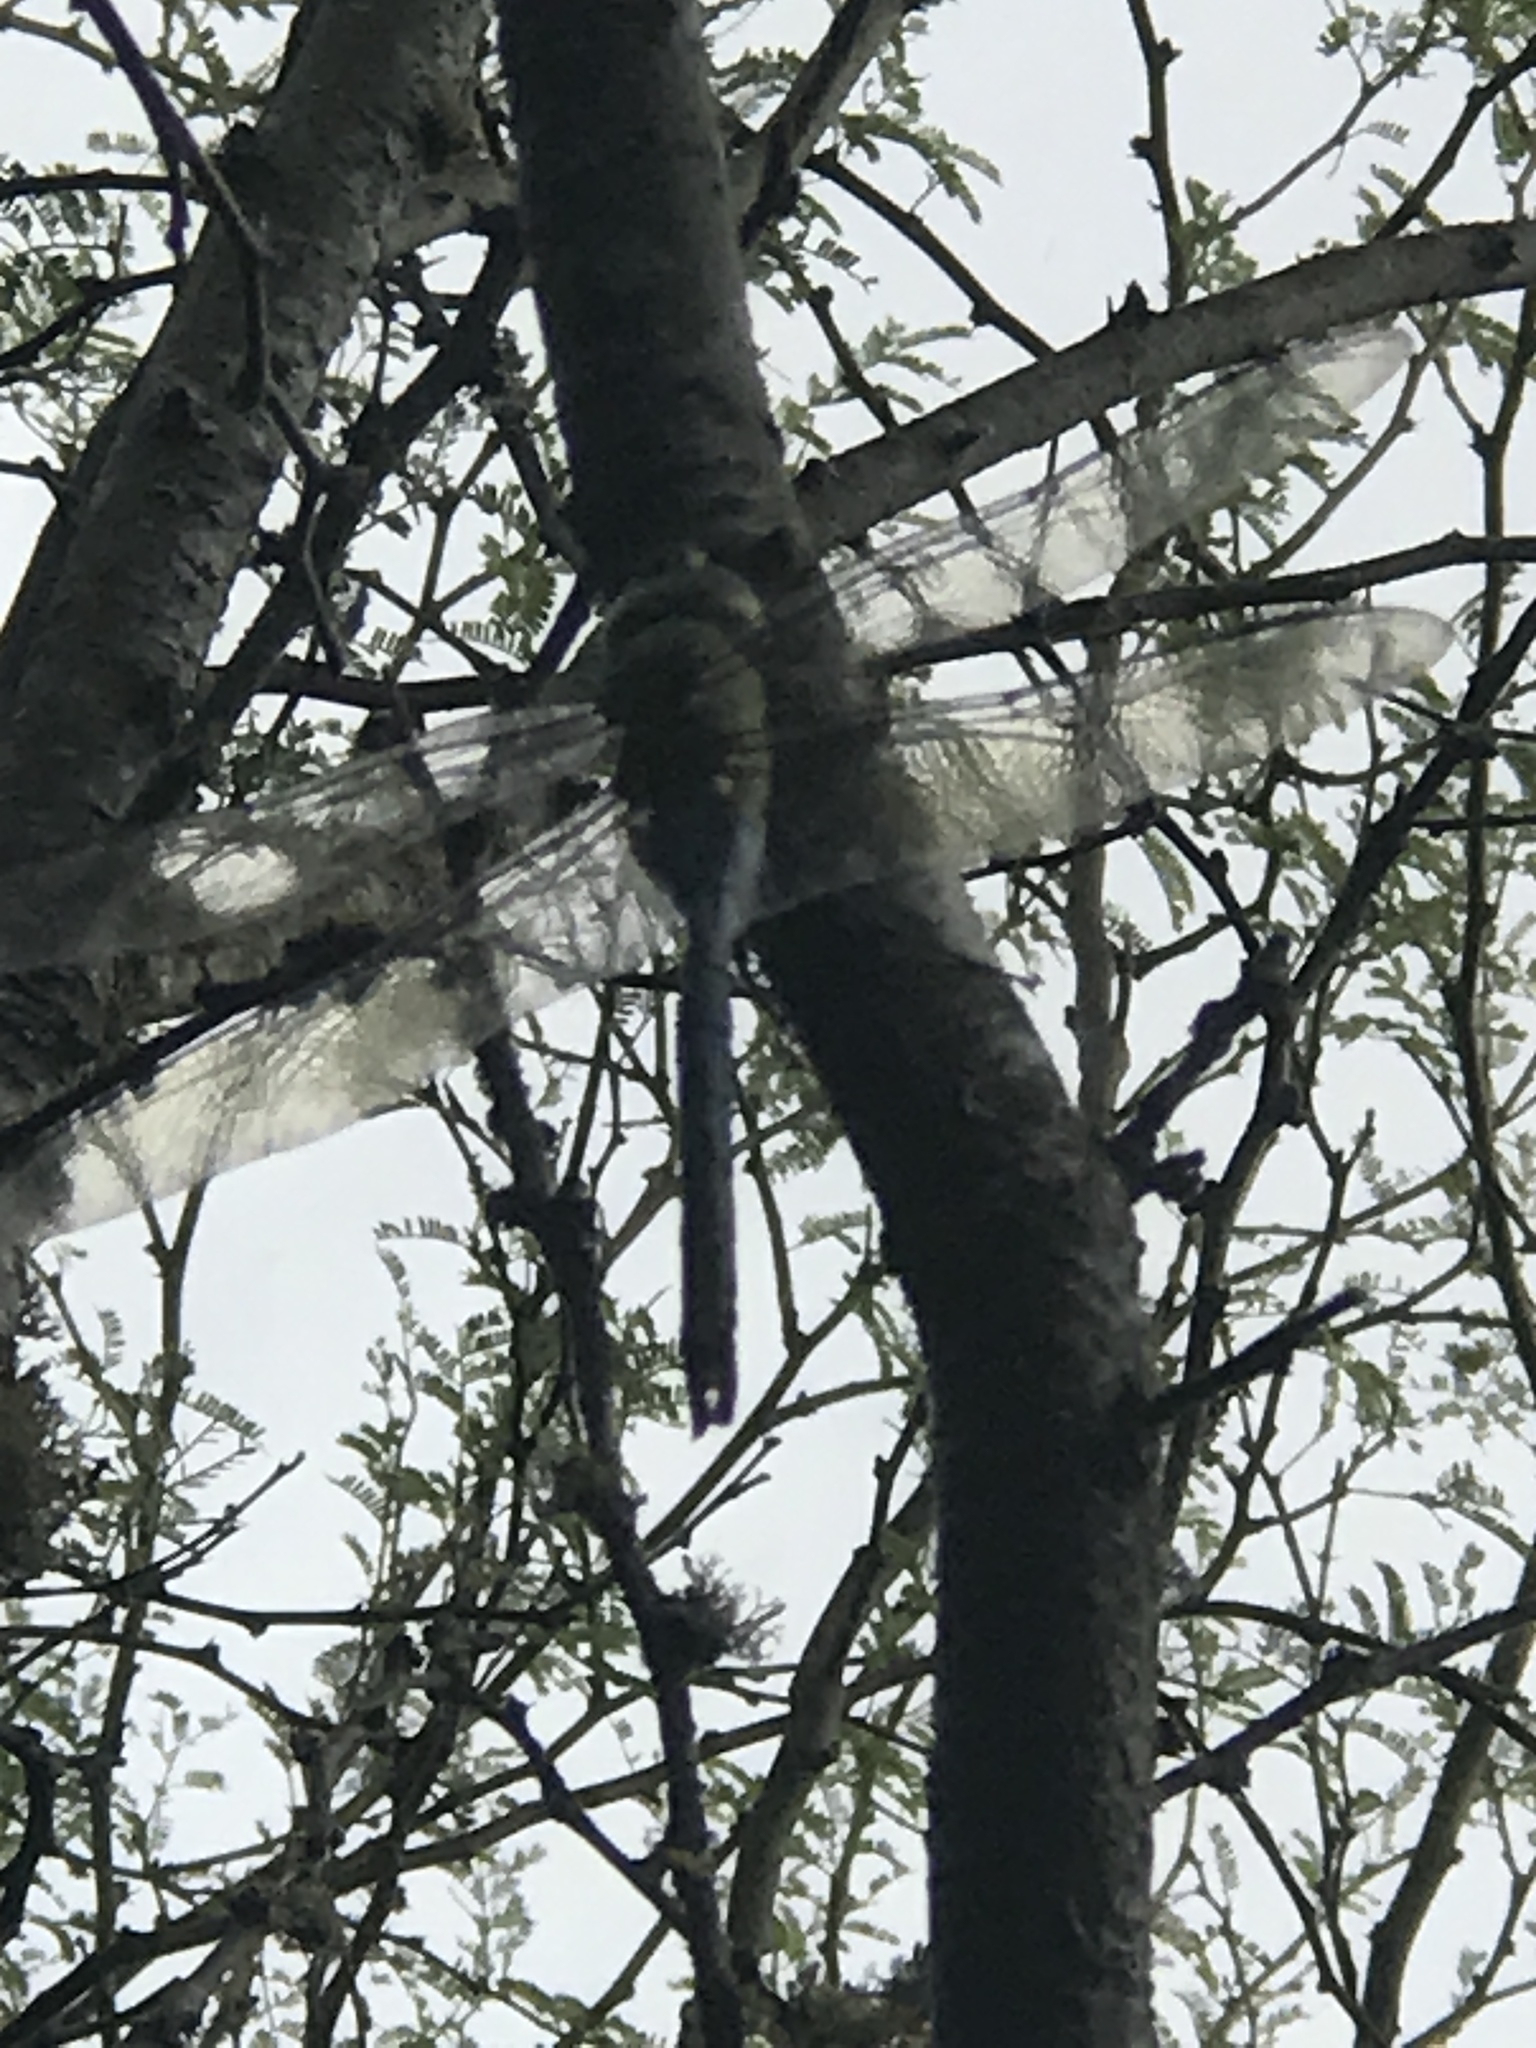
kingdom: Animalia
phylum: Arthropoda
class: Insecta
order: Odonata
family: Aeshnidae
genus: Anax
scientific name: Anax junius
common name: Common green darner
